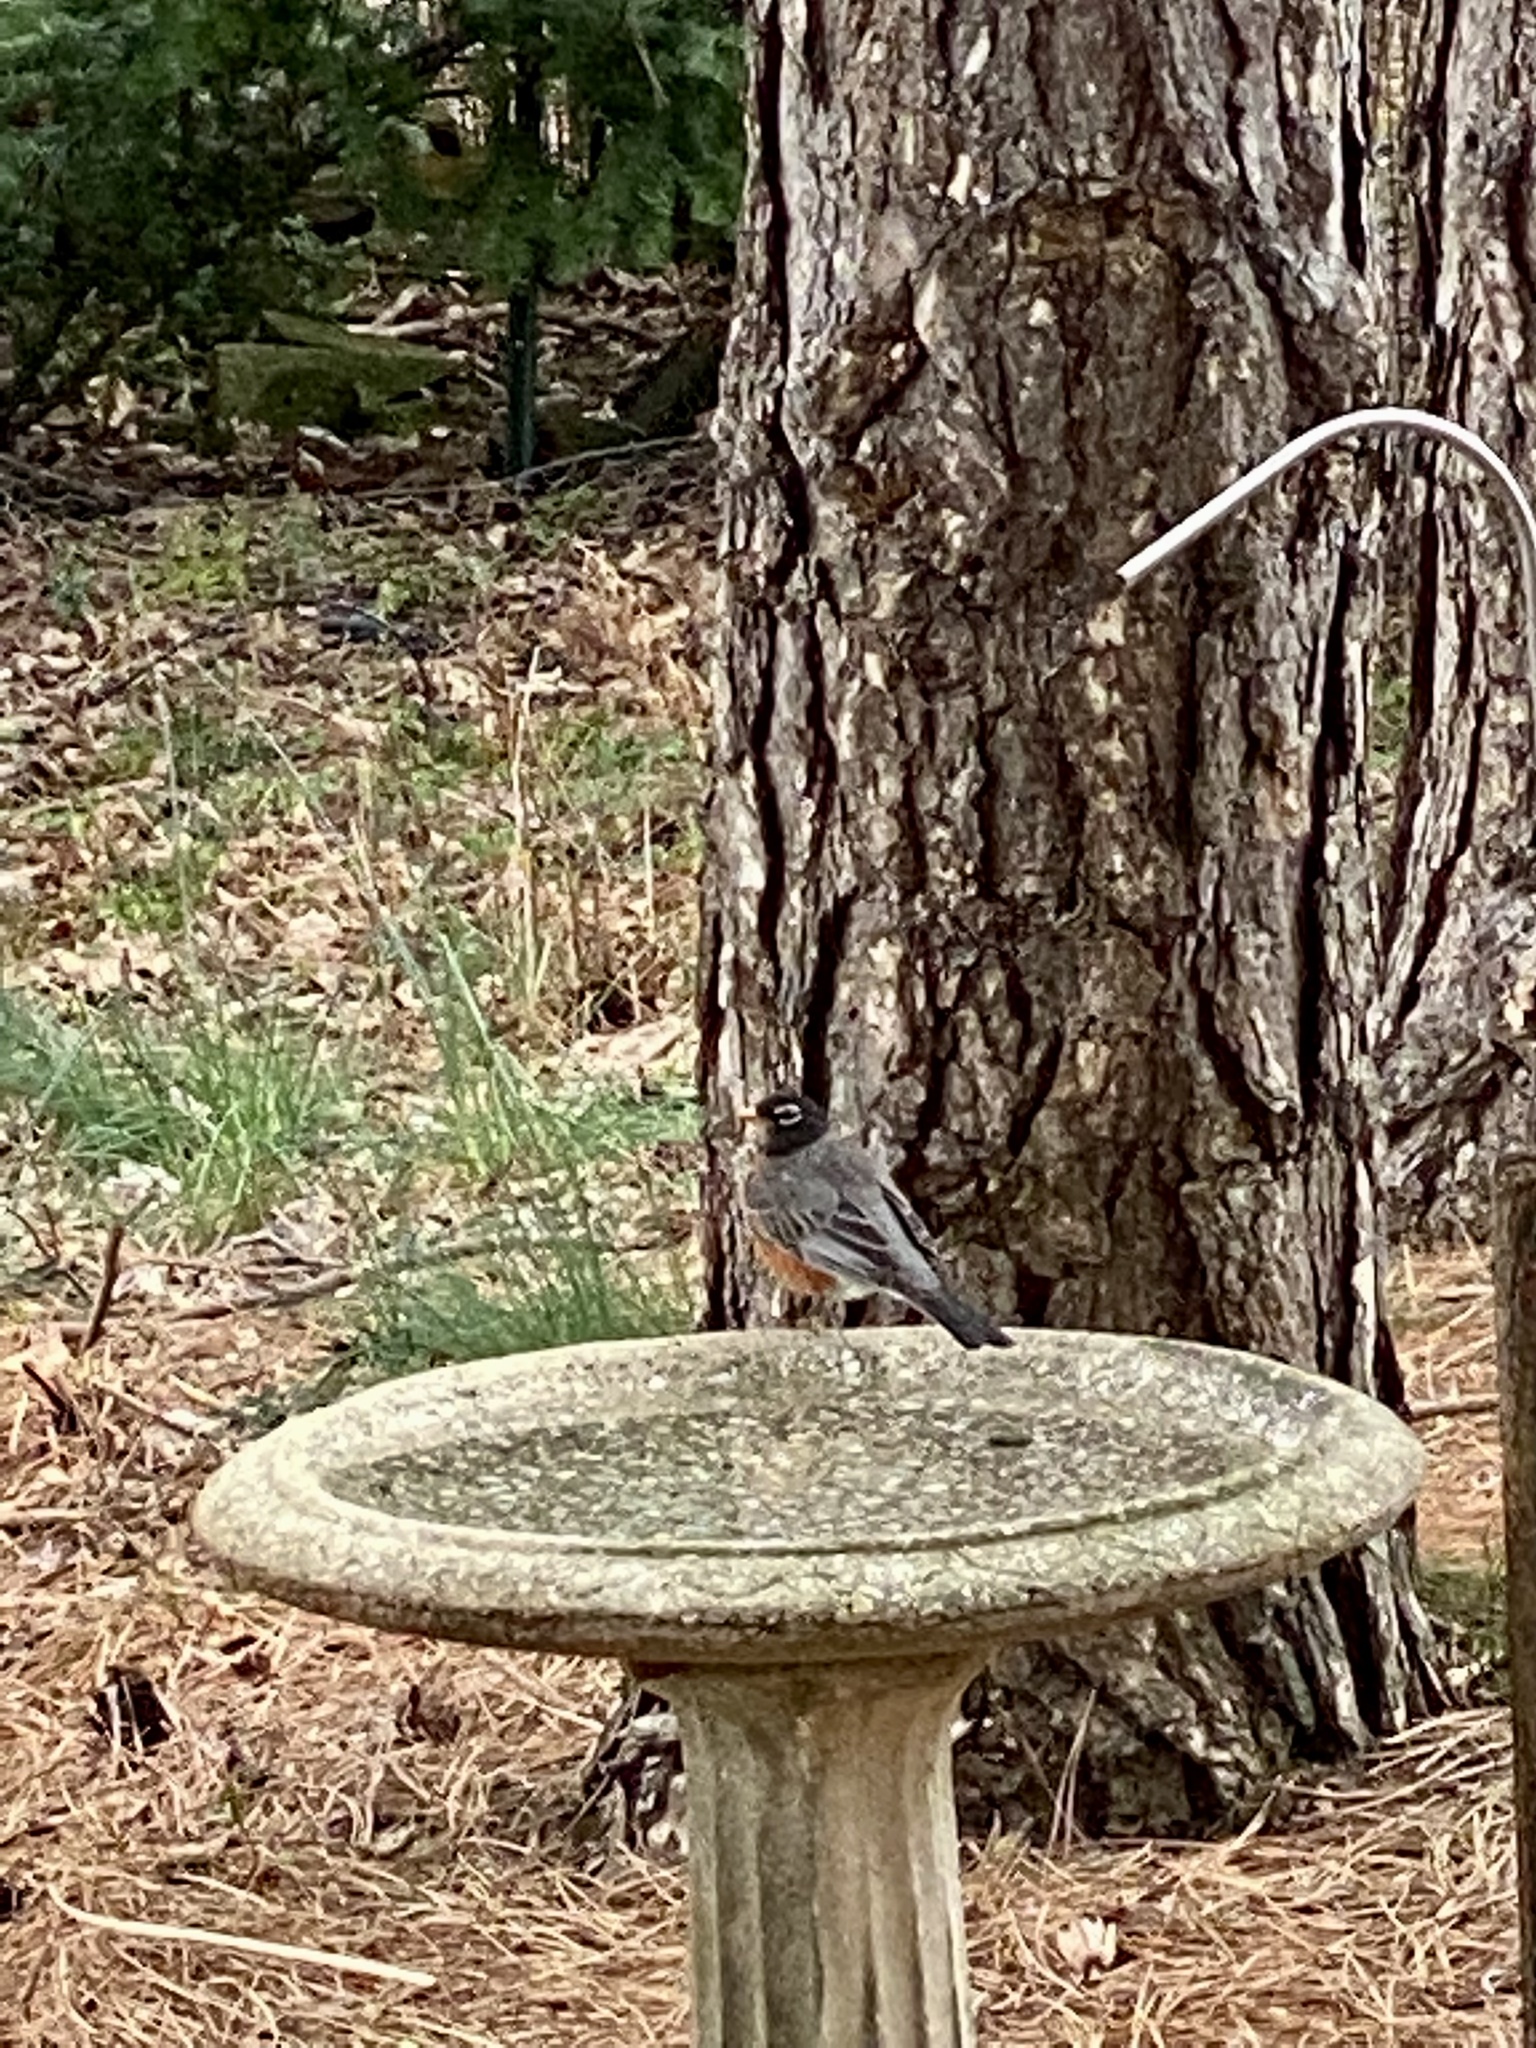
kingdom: Animalia
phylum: Chordata
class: Aves
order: Passeriformes
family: Turdidae
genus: Turdus
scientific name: Turdus migratorius
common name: American robin
